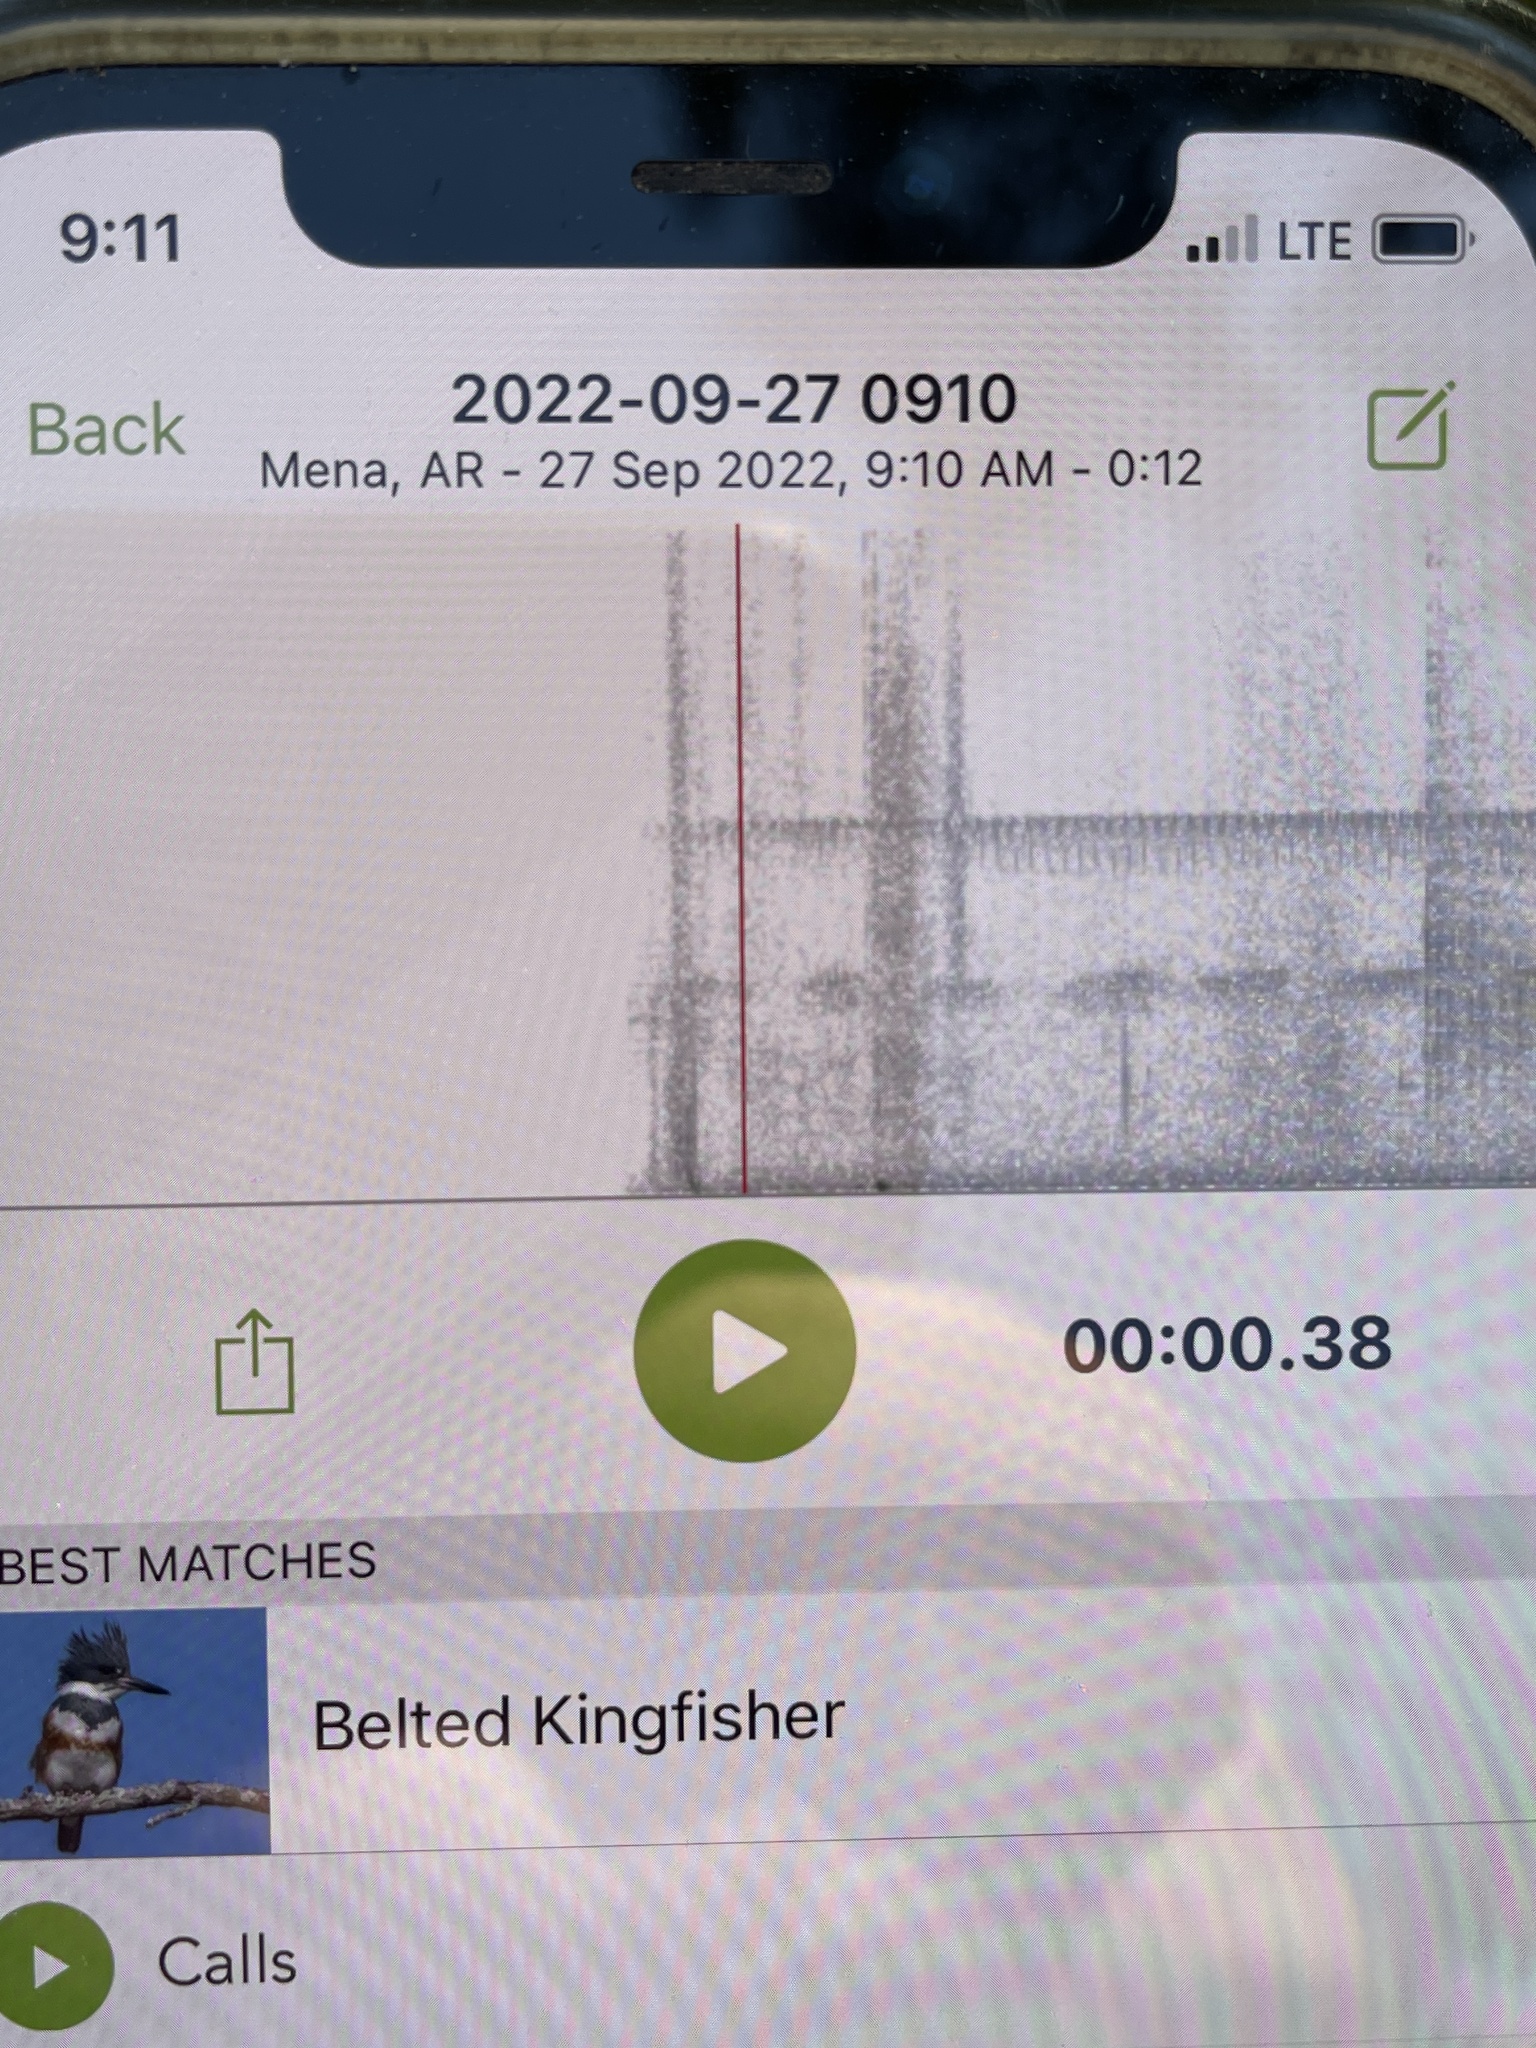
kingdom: Animalia
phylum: Chordata
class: Aves
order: Coraciiformes
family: Alcedinidae
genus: Megaceryle
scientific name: Megaceryle alcyon
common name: Belted kingfisher
